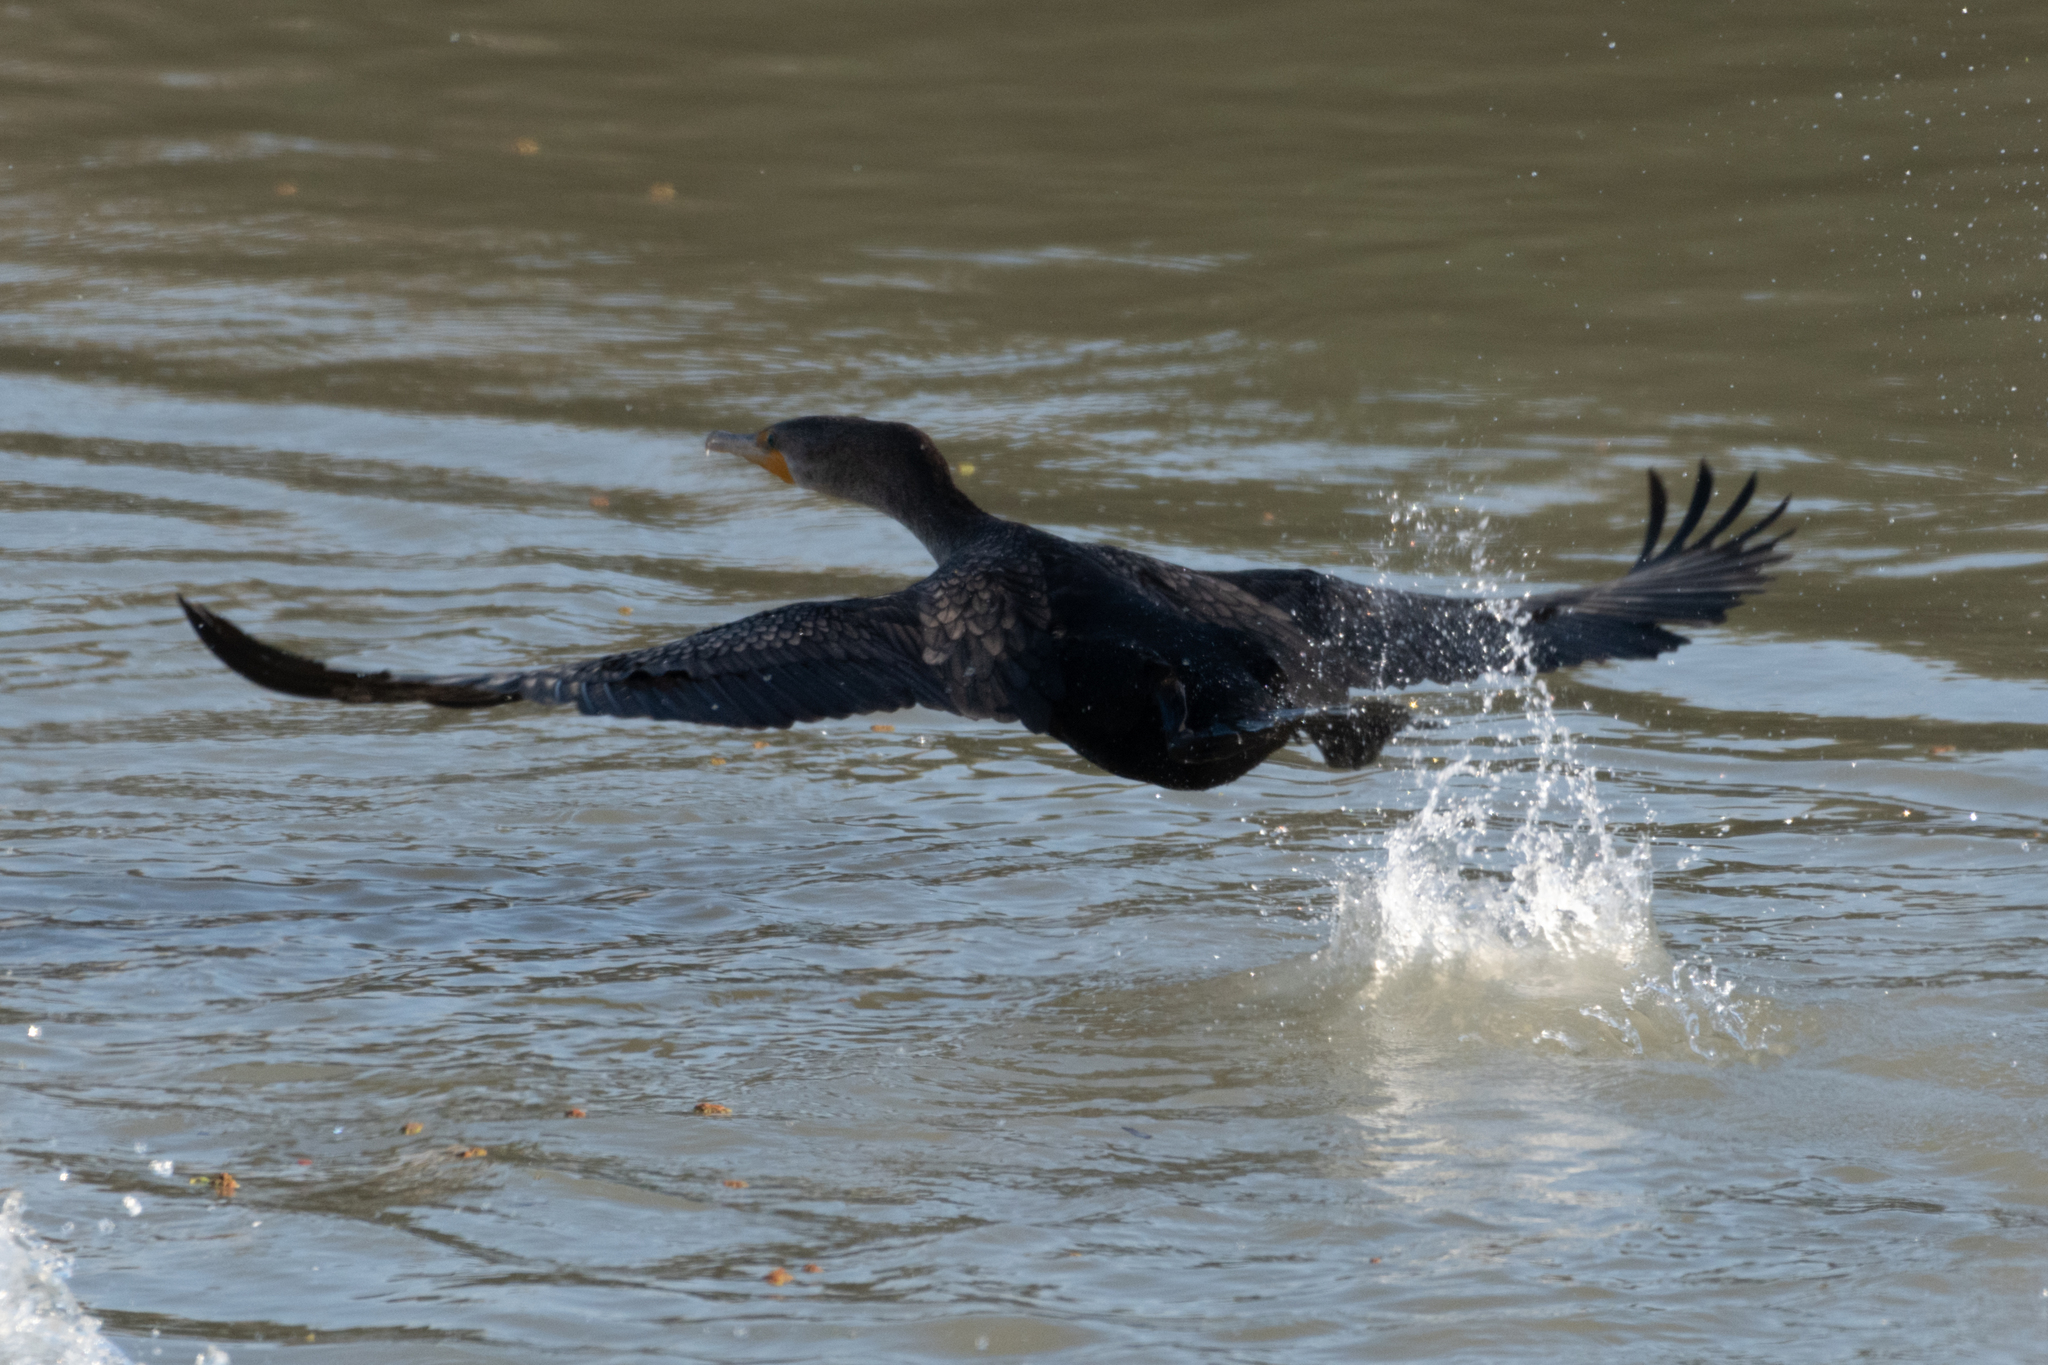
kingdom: Animalia
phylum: Chordata
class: Aves
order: Suliformes
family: Phalacrocoracidae
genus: Phalacrocorax
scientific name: Phalacrocorax auritus
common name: Double-crested cormorant
